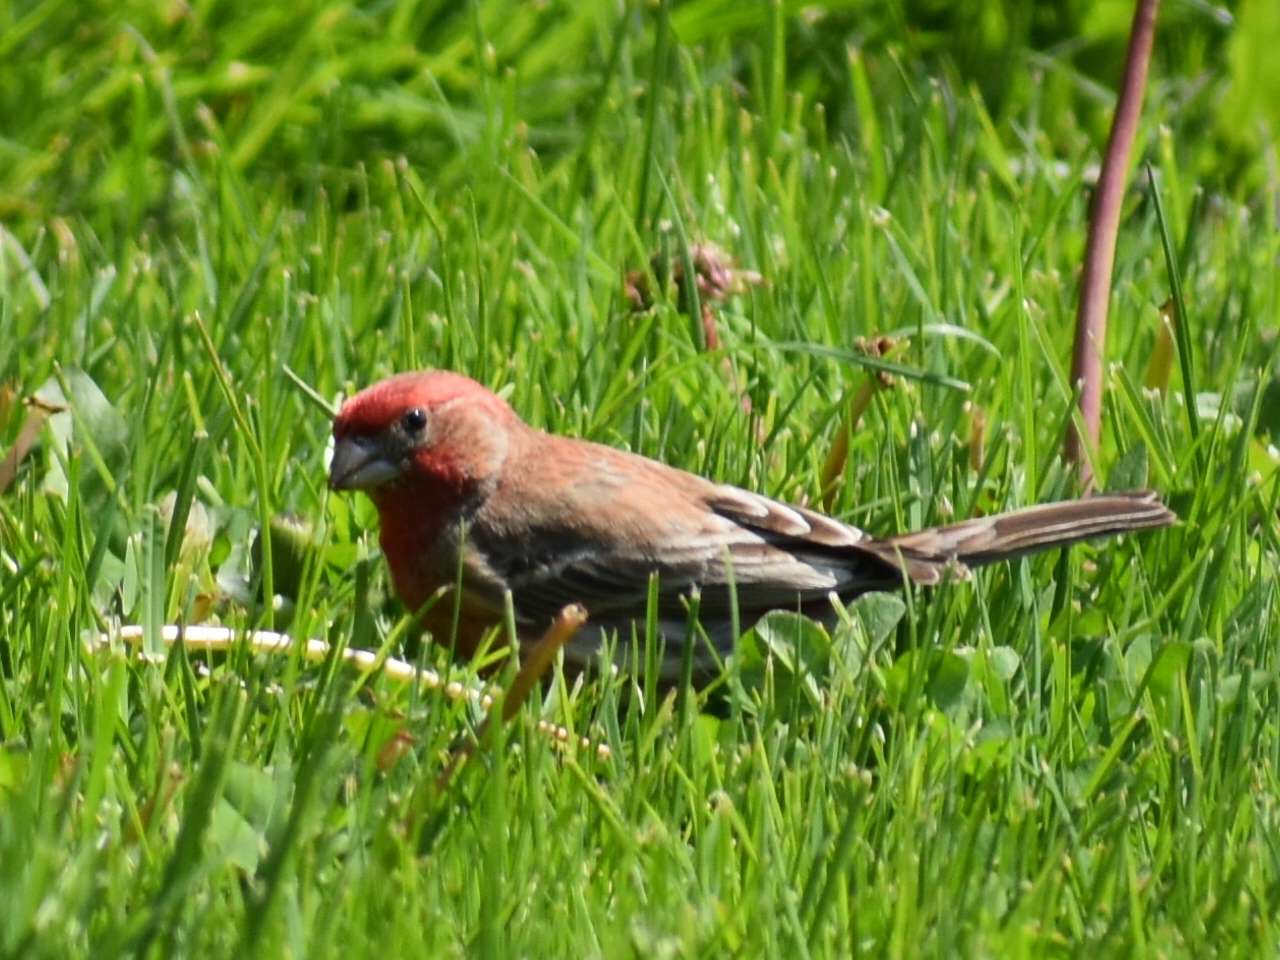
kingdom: Animalia
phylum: Chordata
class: Aves
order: Passeriformes
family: Fringillidae
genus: Haemorhous
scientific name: Haemorhous mexicanus
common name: House finch
